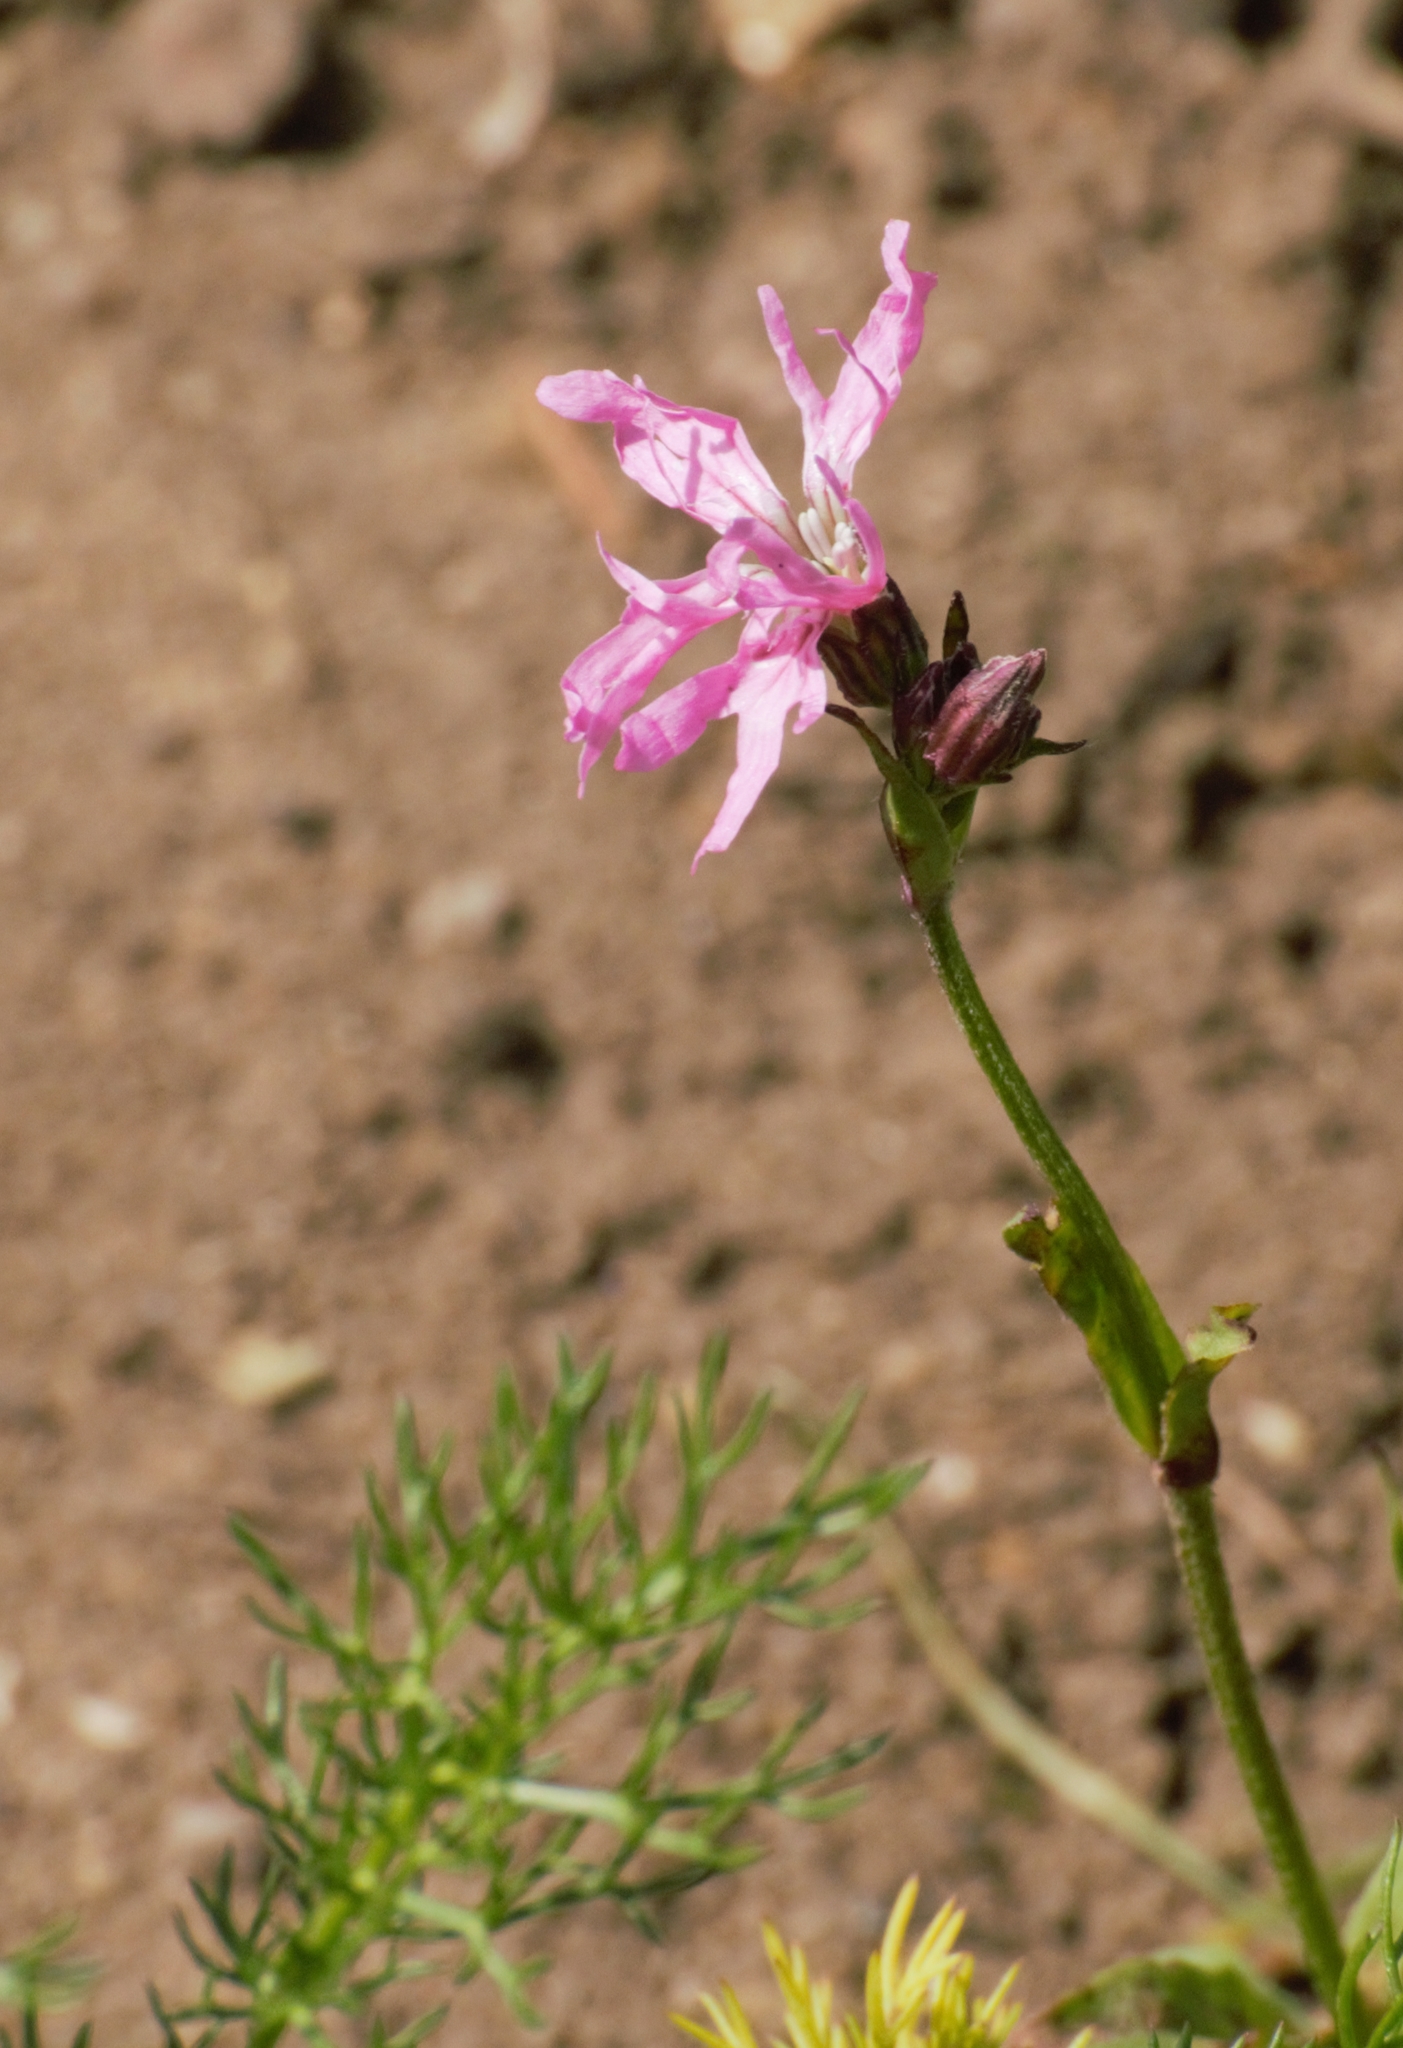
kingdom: Plantae
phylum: Tracheophyta
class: Magnoliopsida
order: Caryophyllales
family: Caryophyllaceae
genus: Silene
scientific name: Silene flos-cuculi
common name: Ragged-robin
